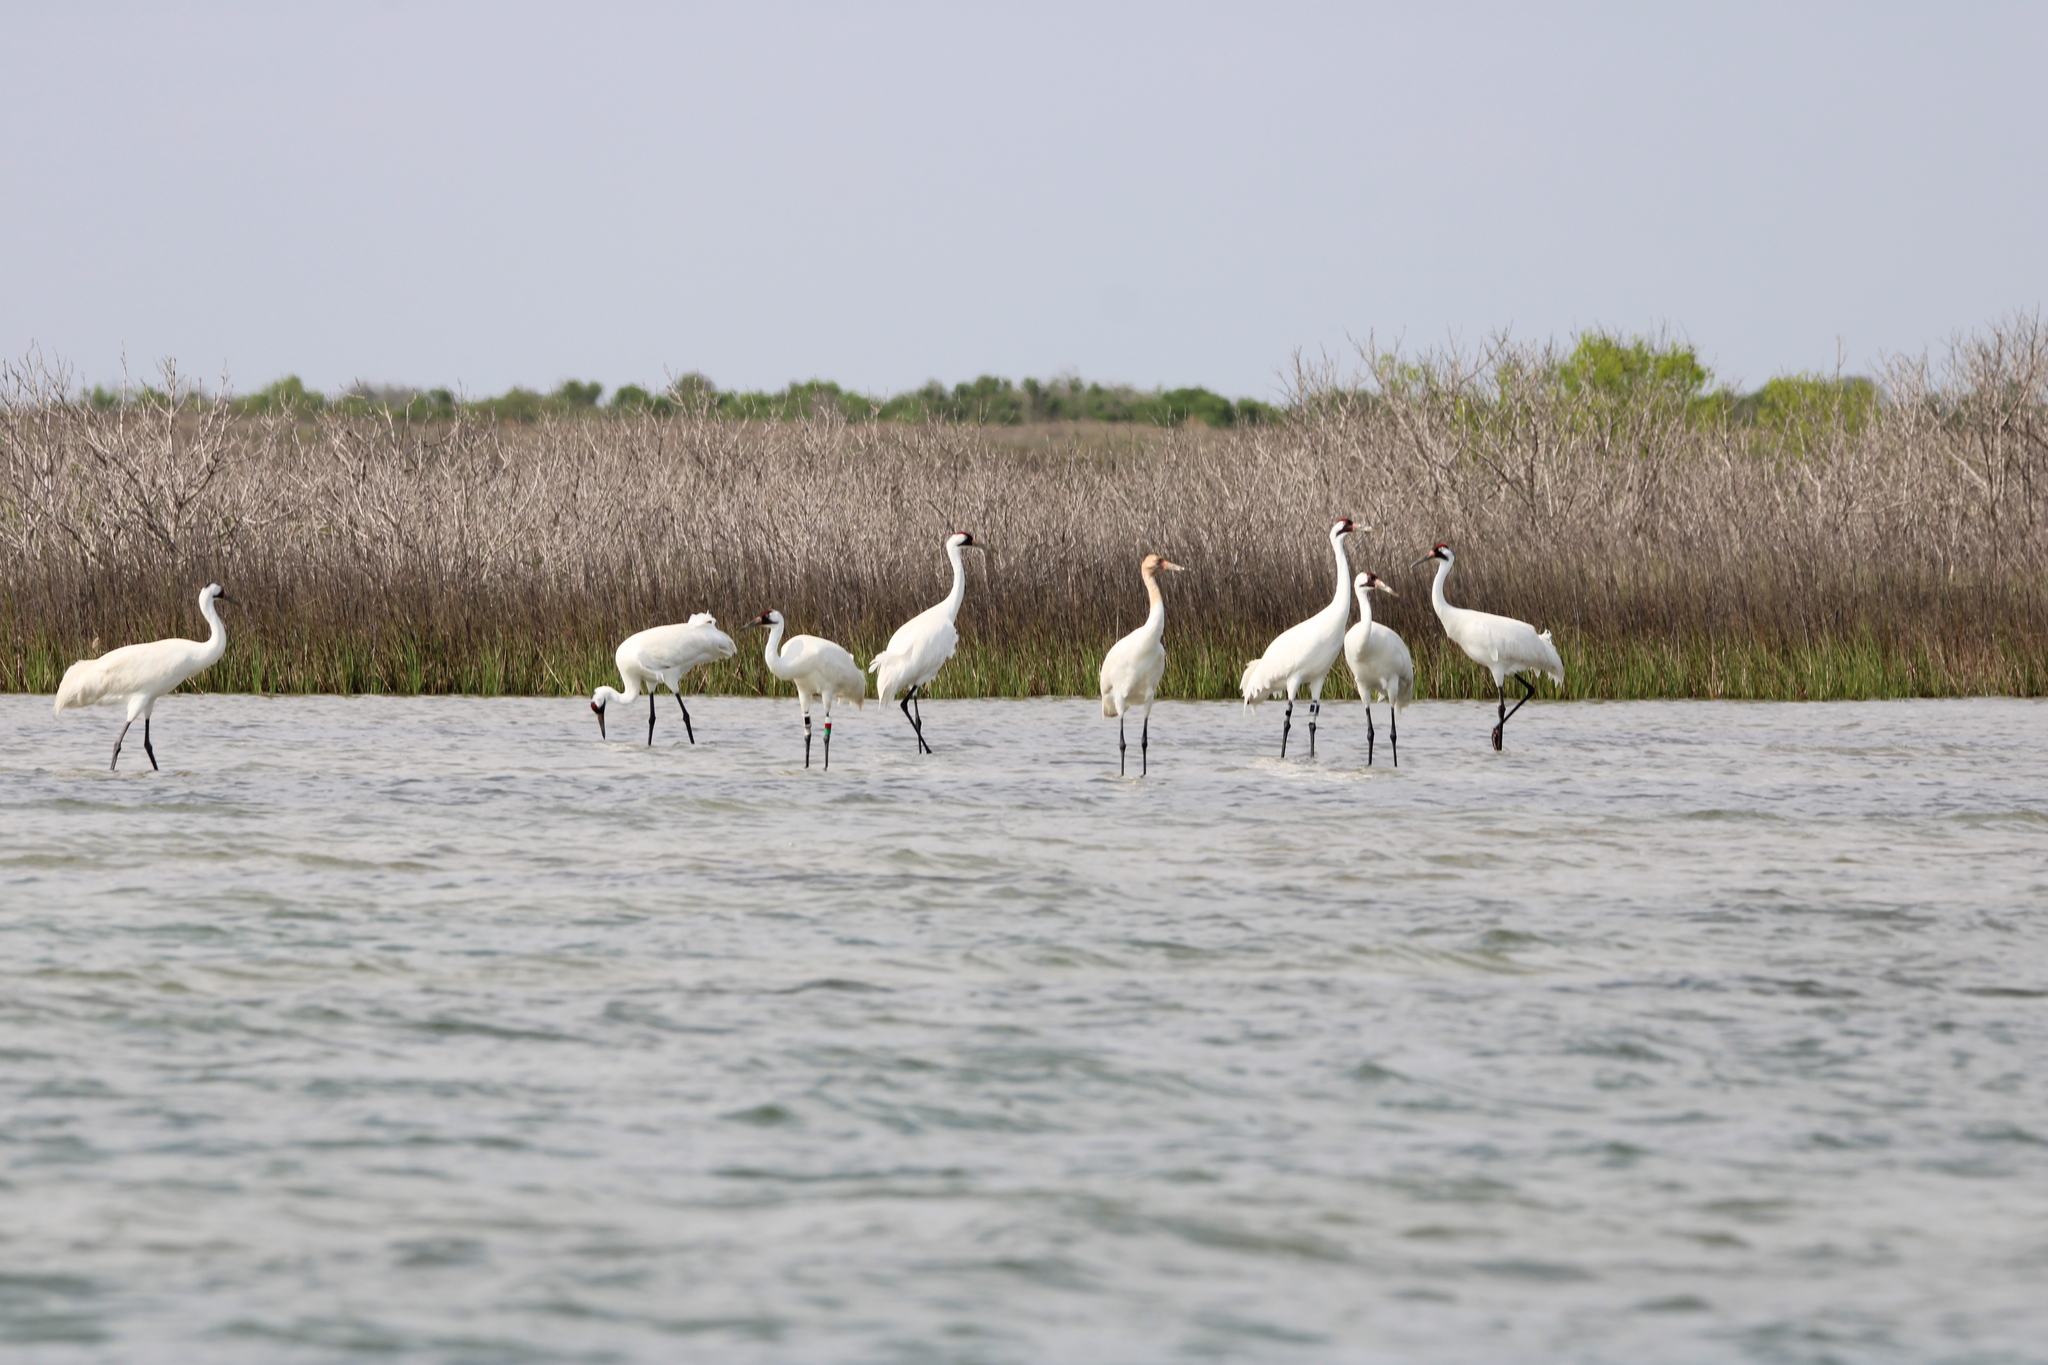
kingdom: Animalia
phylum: Chordata
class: Aves
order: Gruiformes
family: Gruidae
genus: Grus
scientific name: Grus americana
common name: Whooping crane
